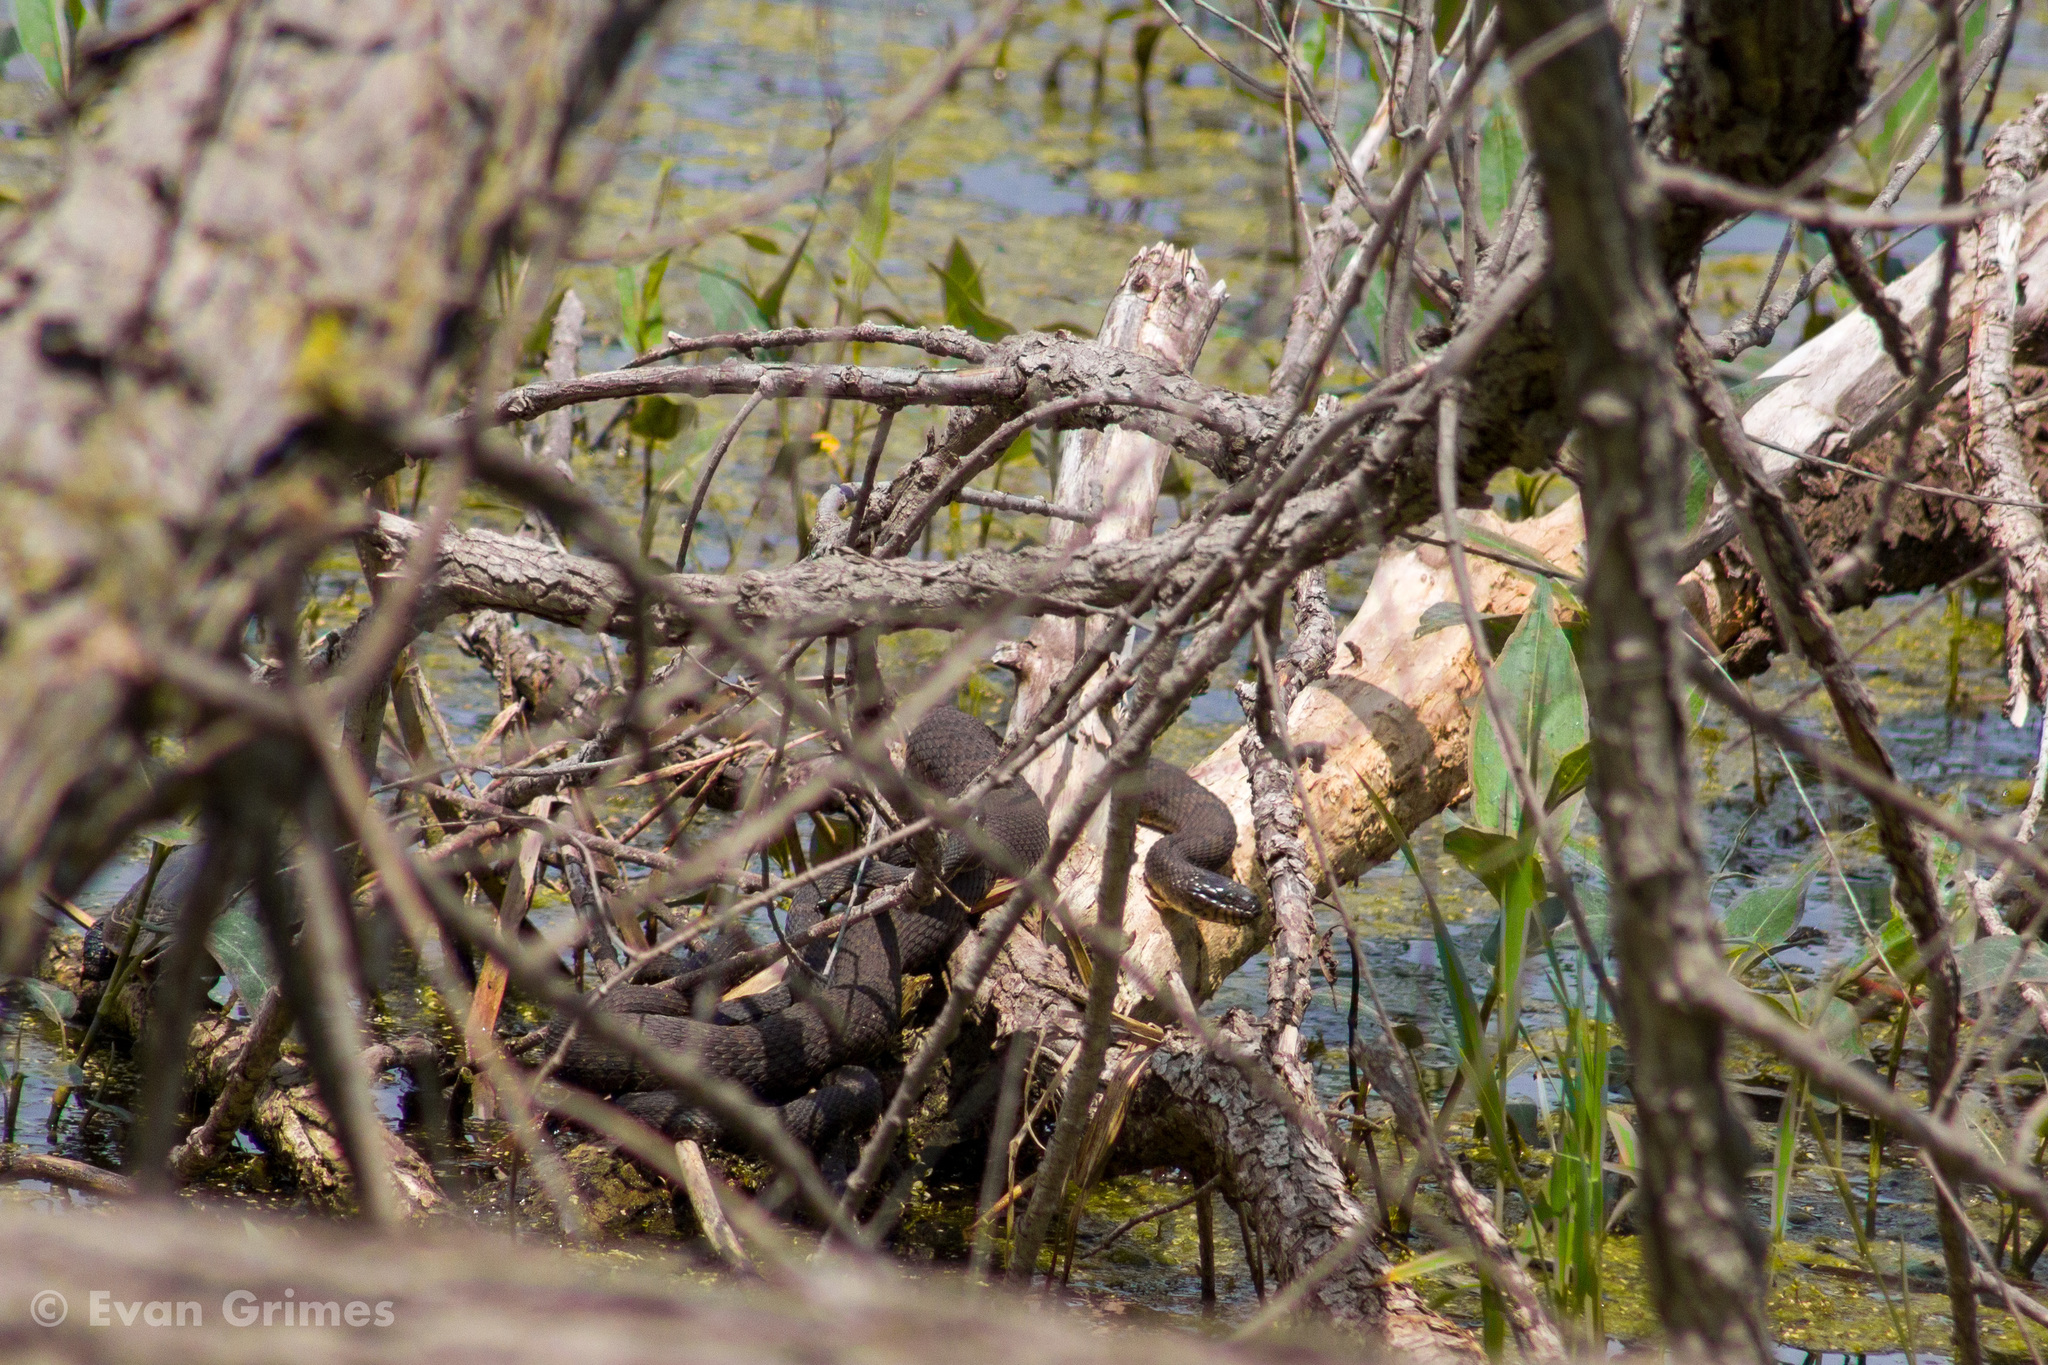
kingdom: Animalia
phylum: Chordata
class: Squamata
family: Colubridae
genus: Nerodia
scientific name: Nerodia sipedon
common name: Northern water snake
